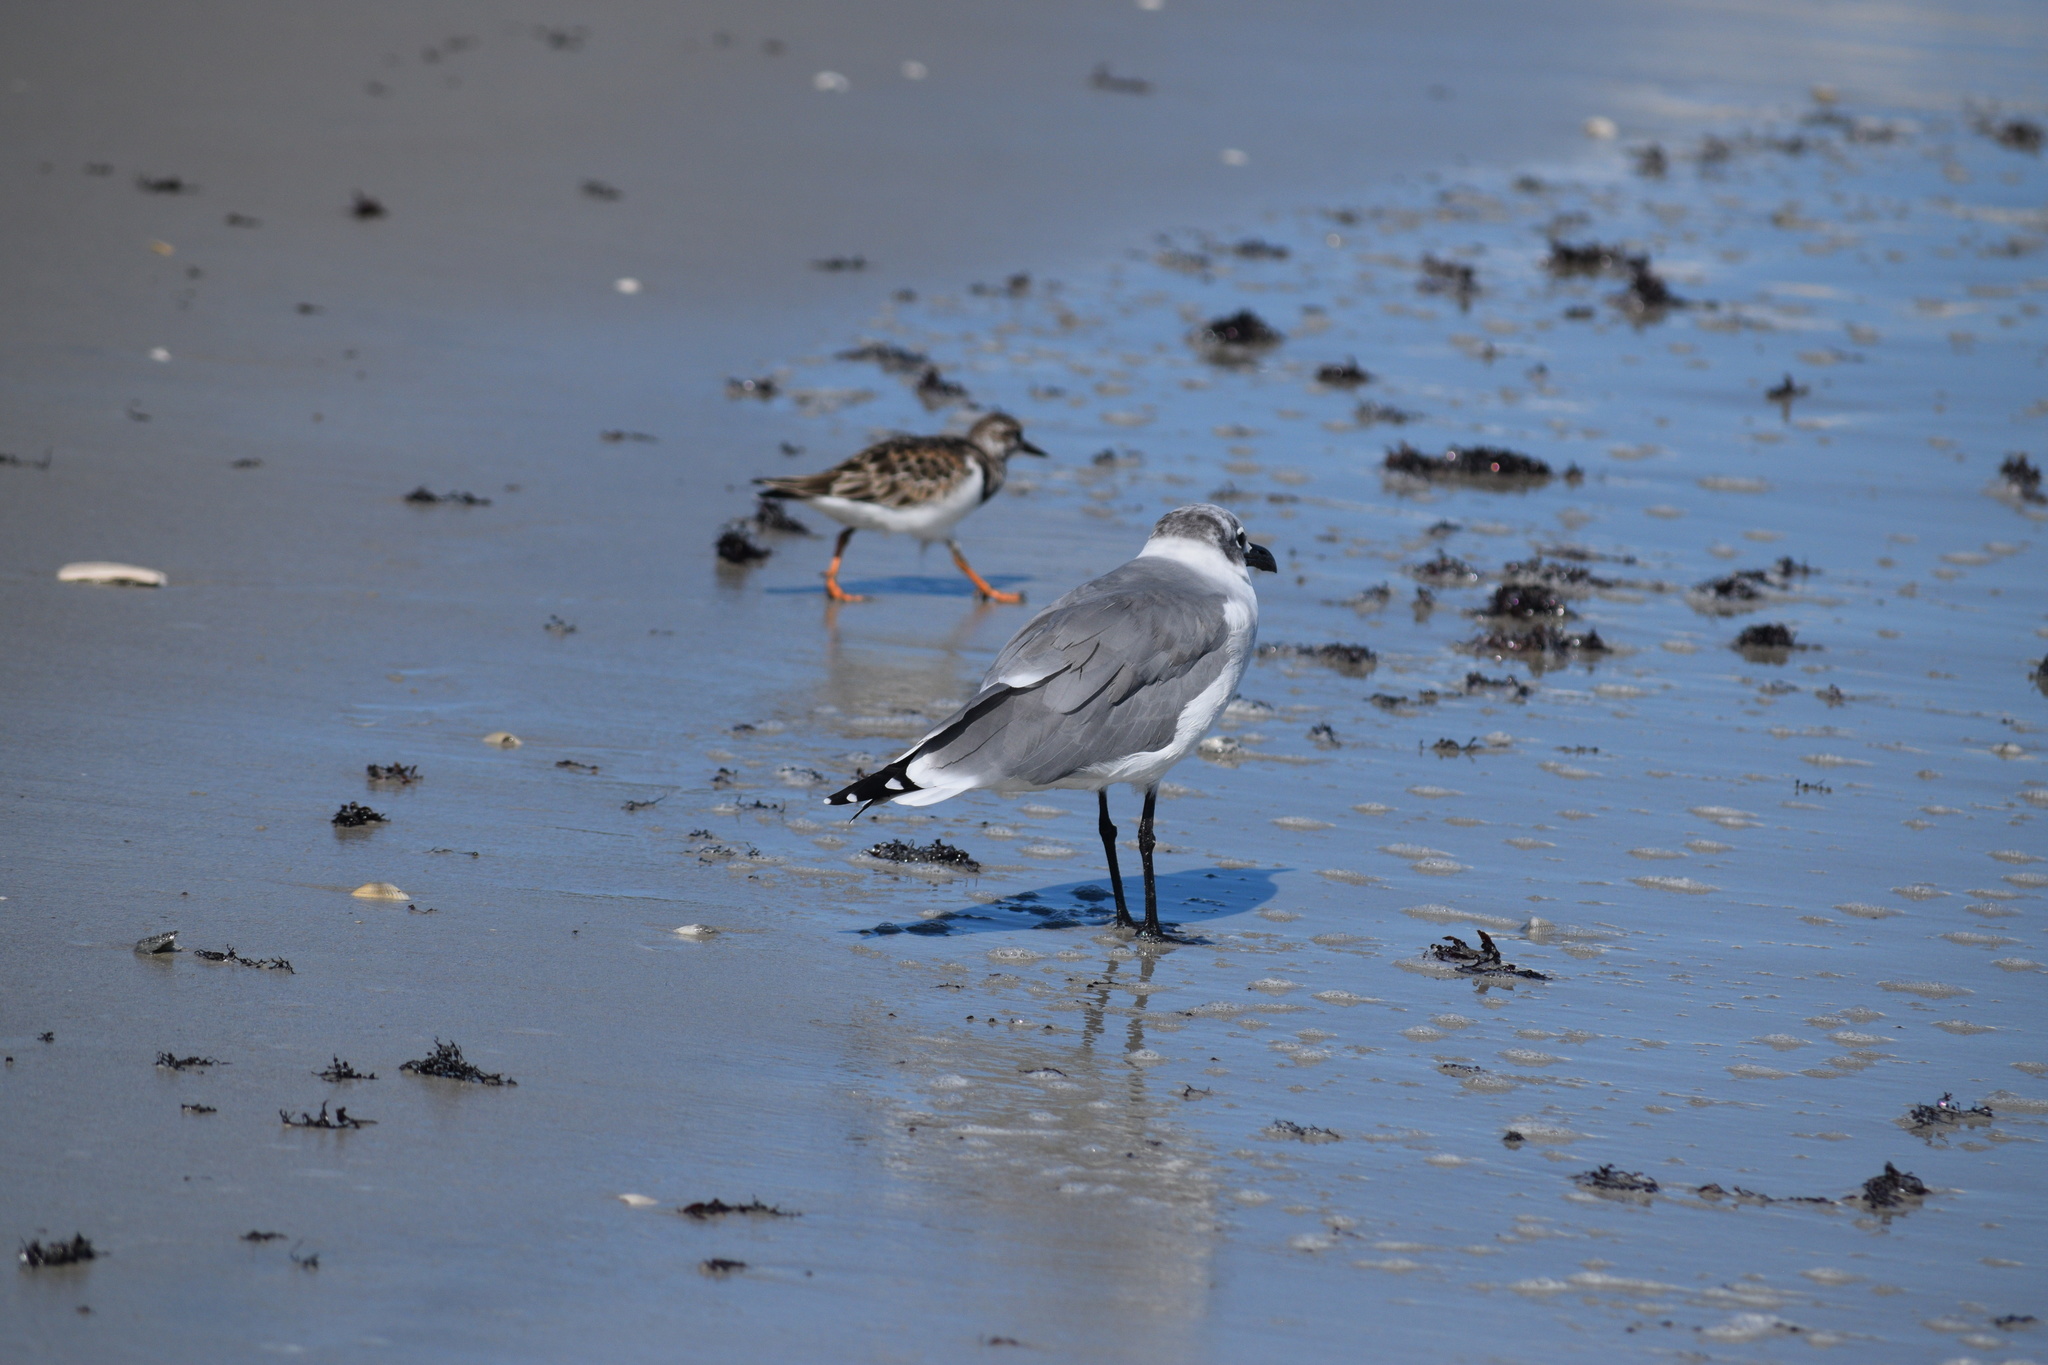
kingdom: Animalia
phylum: Chordata
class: Aves
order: Charadriiformes
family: Laridae
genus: Leucophaeus
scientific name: Leucophaeus atricilla
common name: Laughing gull
